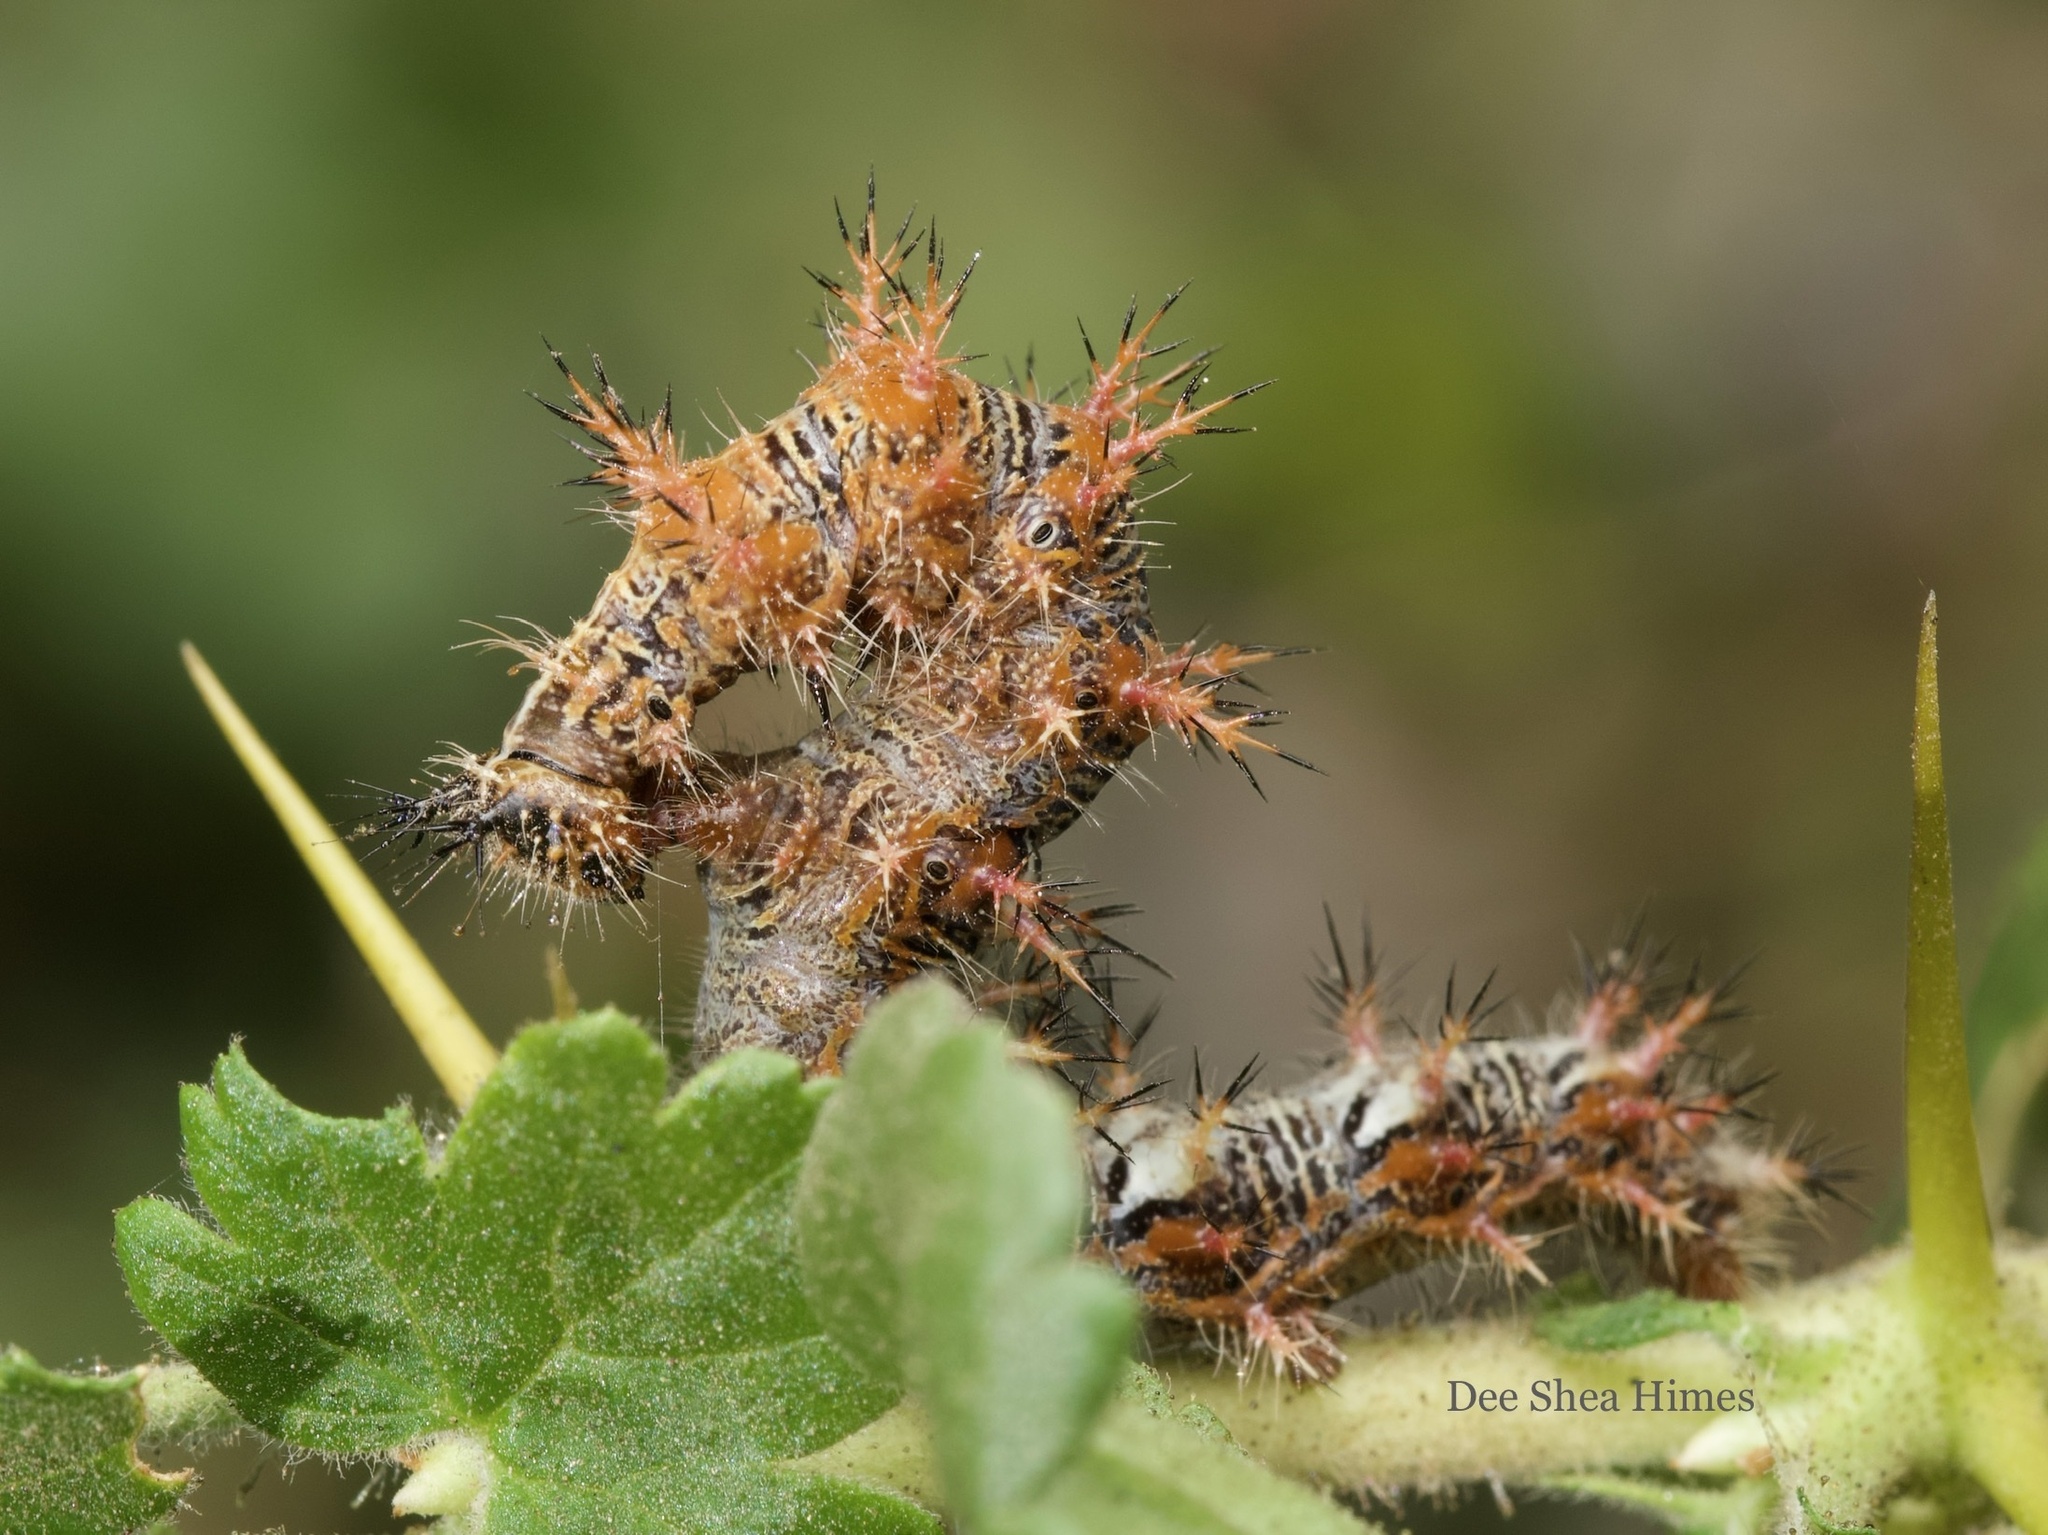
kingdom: Animalia
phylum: Arthropoda
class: Insecta
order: Lepidoptera
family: Nymphalidae
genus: Polygonia
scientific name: Polygonia gracilis
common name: Hoary comma
